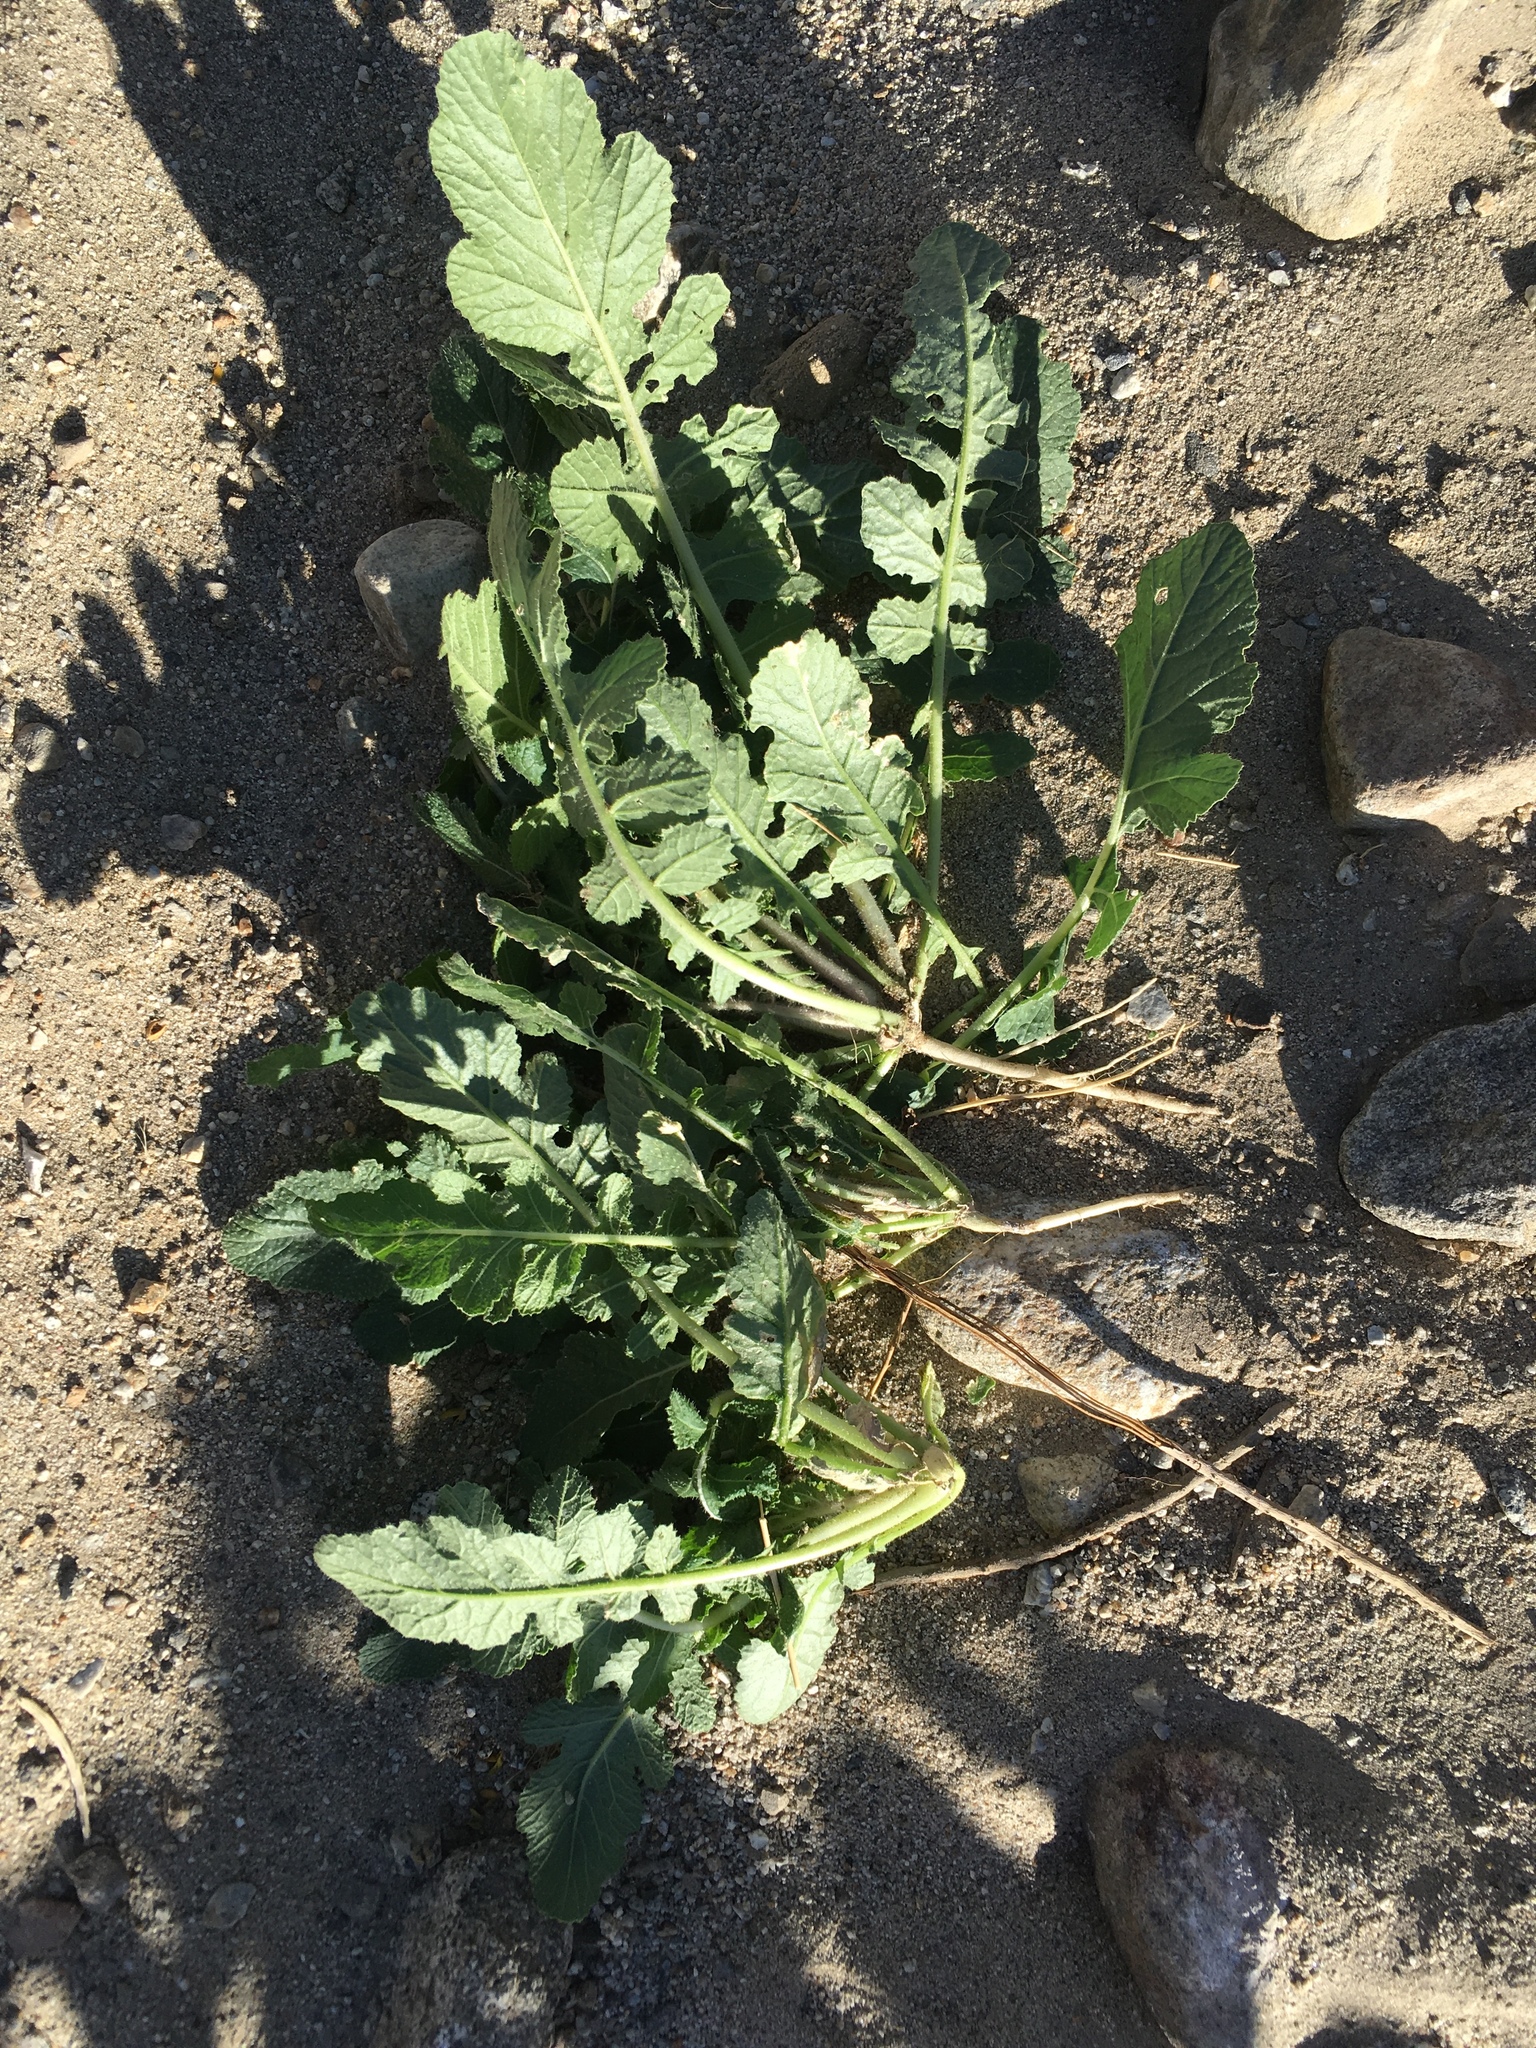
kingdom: Plantae
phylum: Tracheophyta
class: Magnoliopsida
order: Brassicales
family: Brassicaceae
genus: Brassica
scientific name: Brassica tournefortii
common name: Pale cabbage
